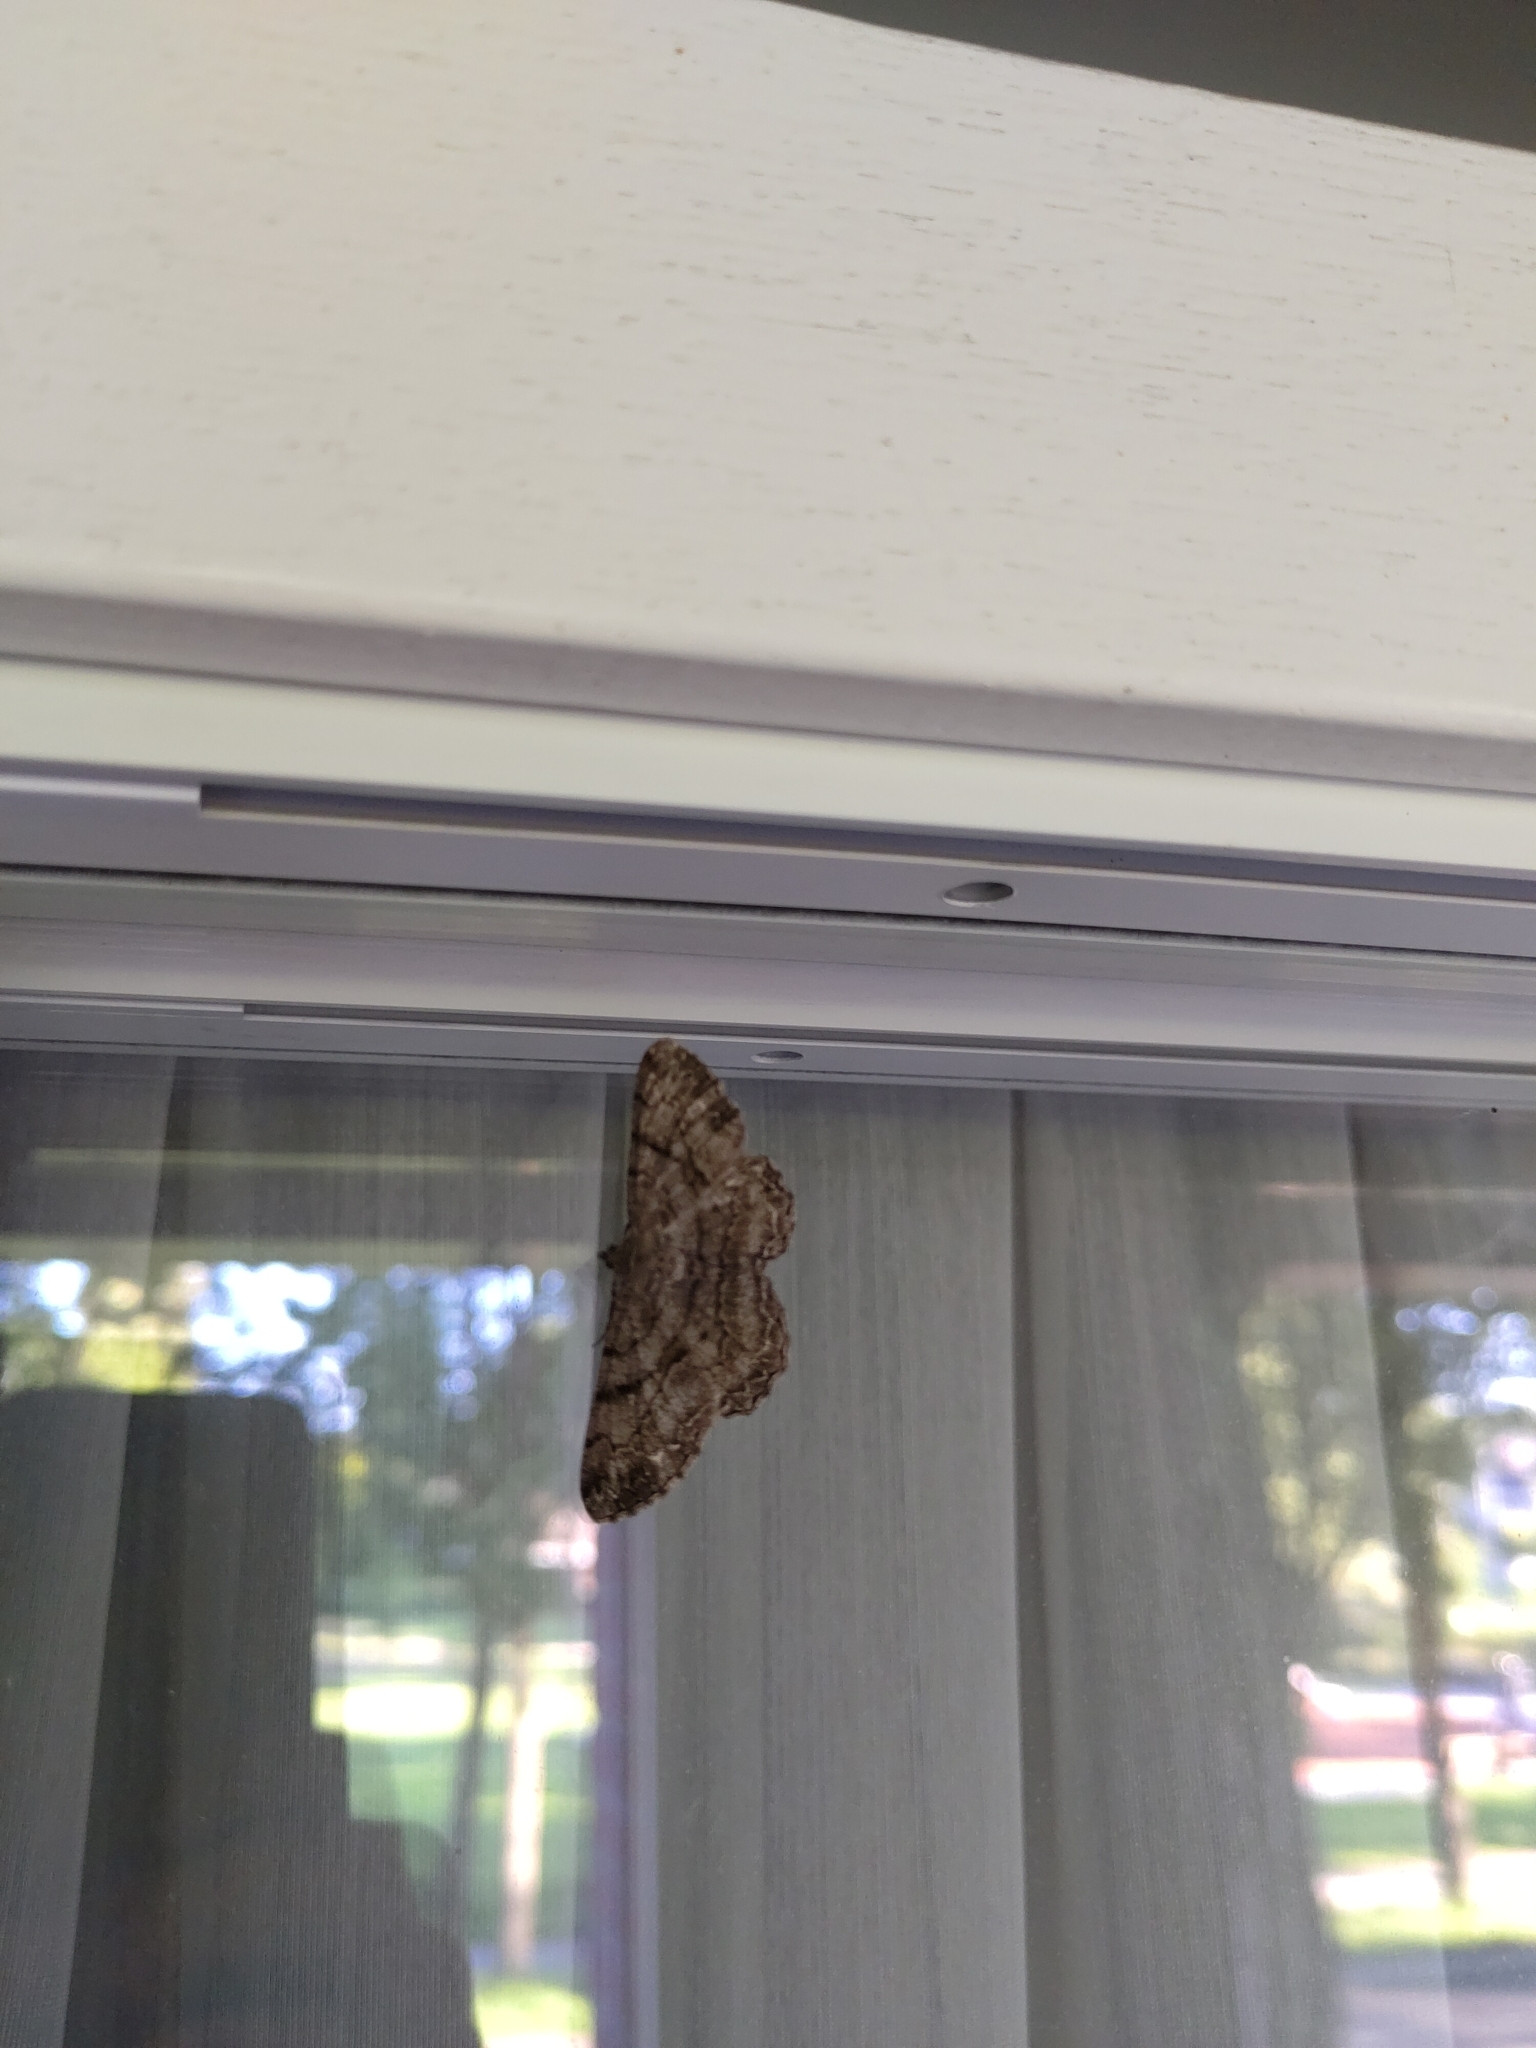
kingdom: Animalia
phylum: Arthropoda
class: Insecta
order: Lepidoptera
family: Geometridae
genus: Peribatodes
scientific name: Peribatodes rhomboidaria
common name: Willow beauty
